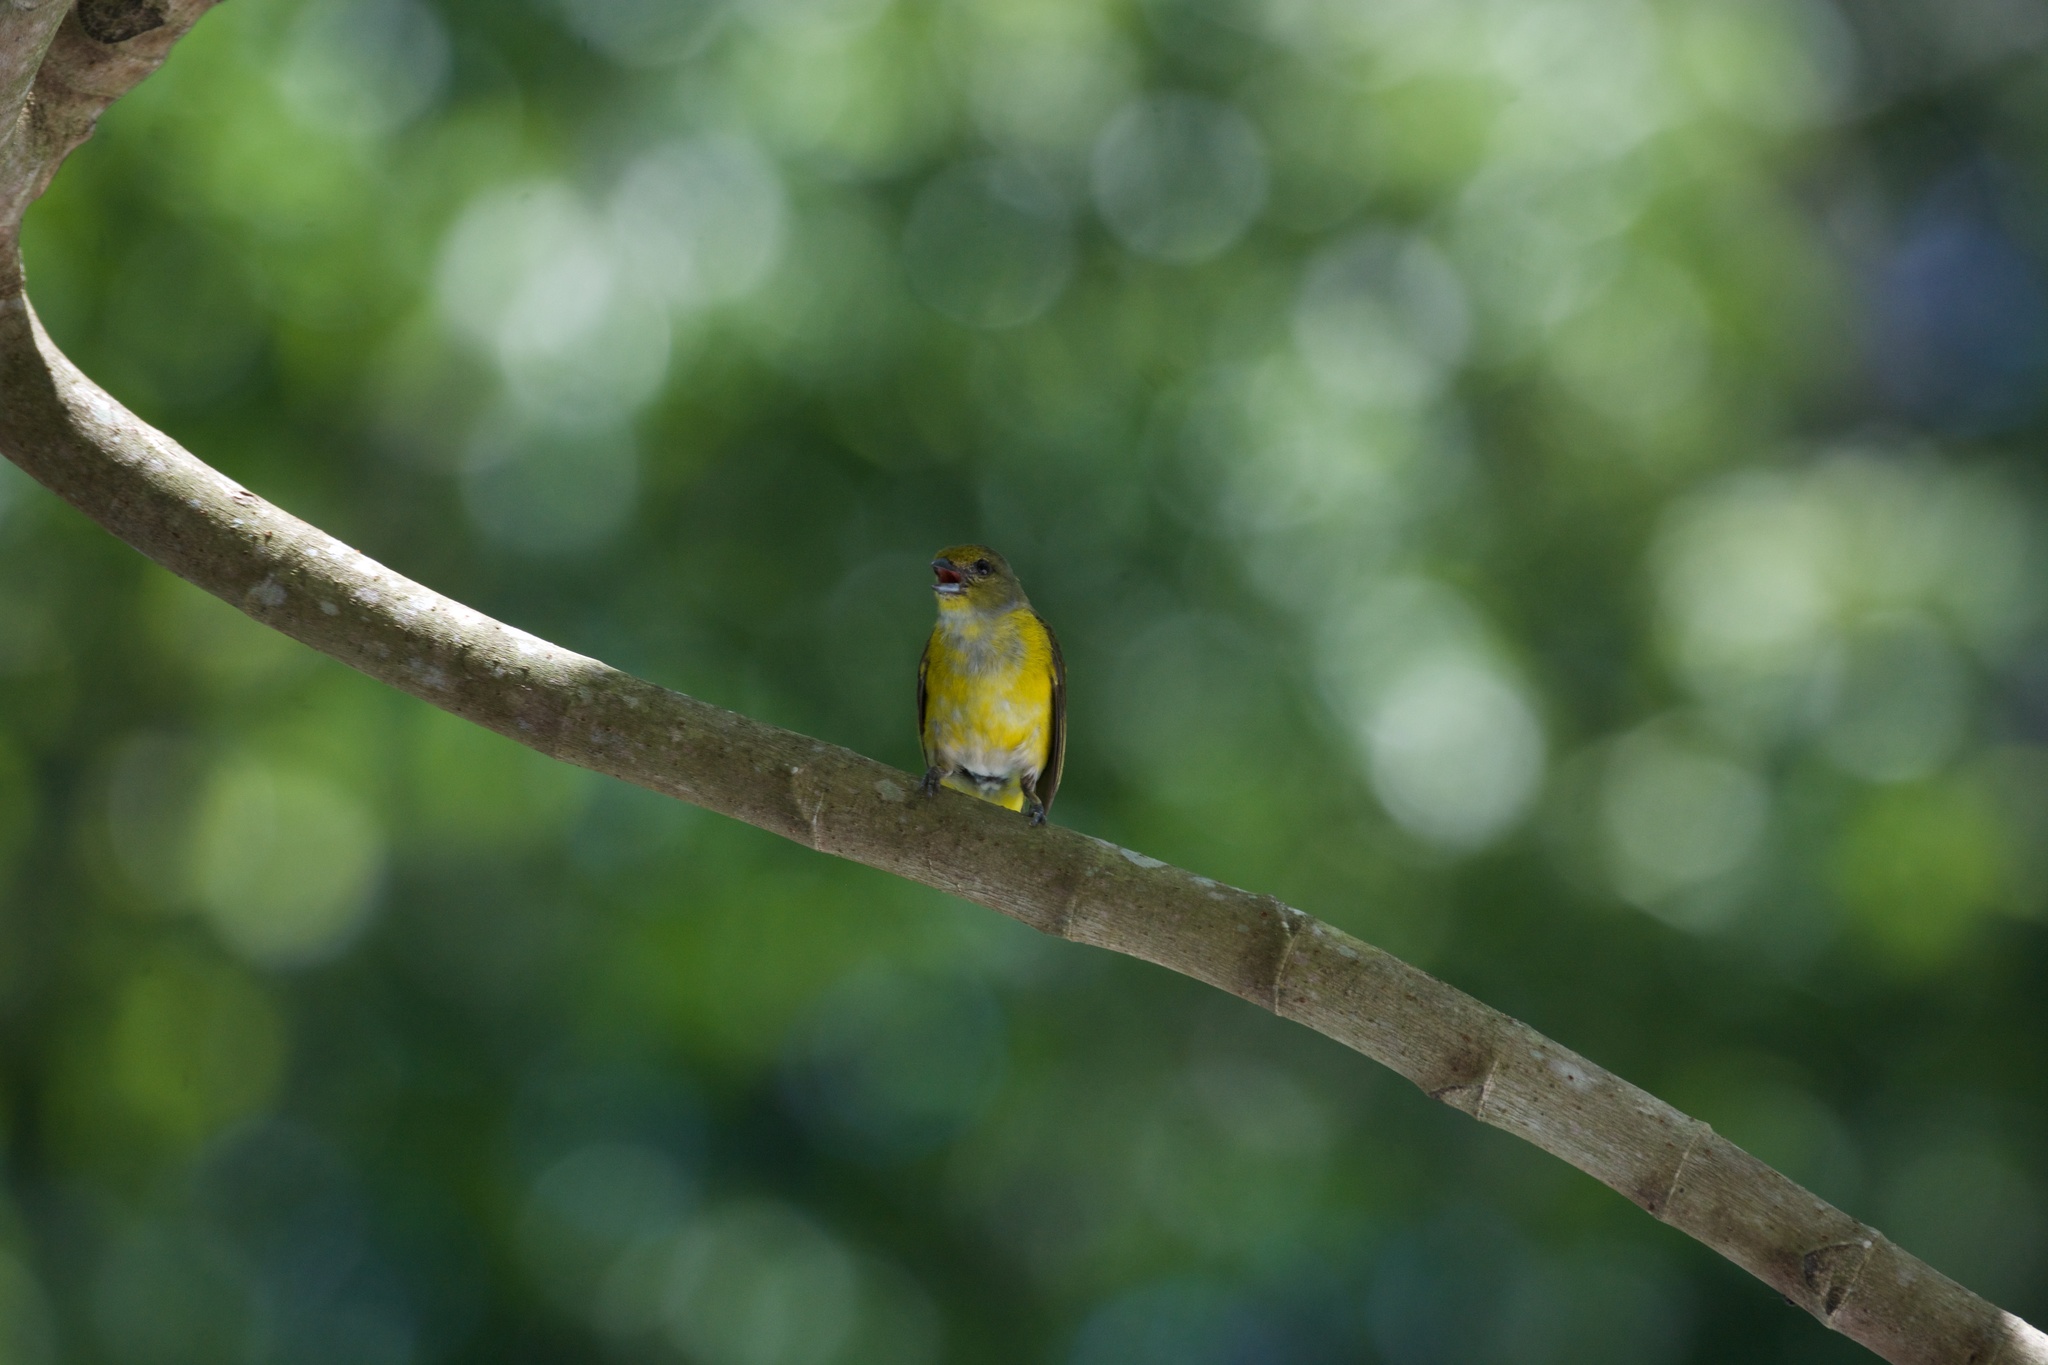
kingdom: Animalia
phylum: Chordata
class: Aves
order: Passeriformes
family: Fringillidae
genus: Euphonia
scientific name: Euphonia hirundinacea
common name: Yellow-throated euphonia
